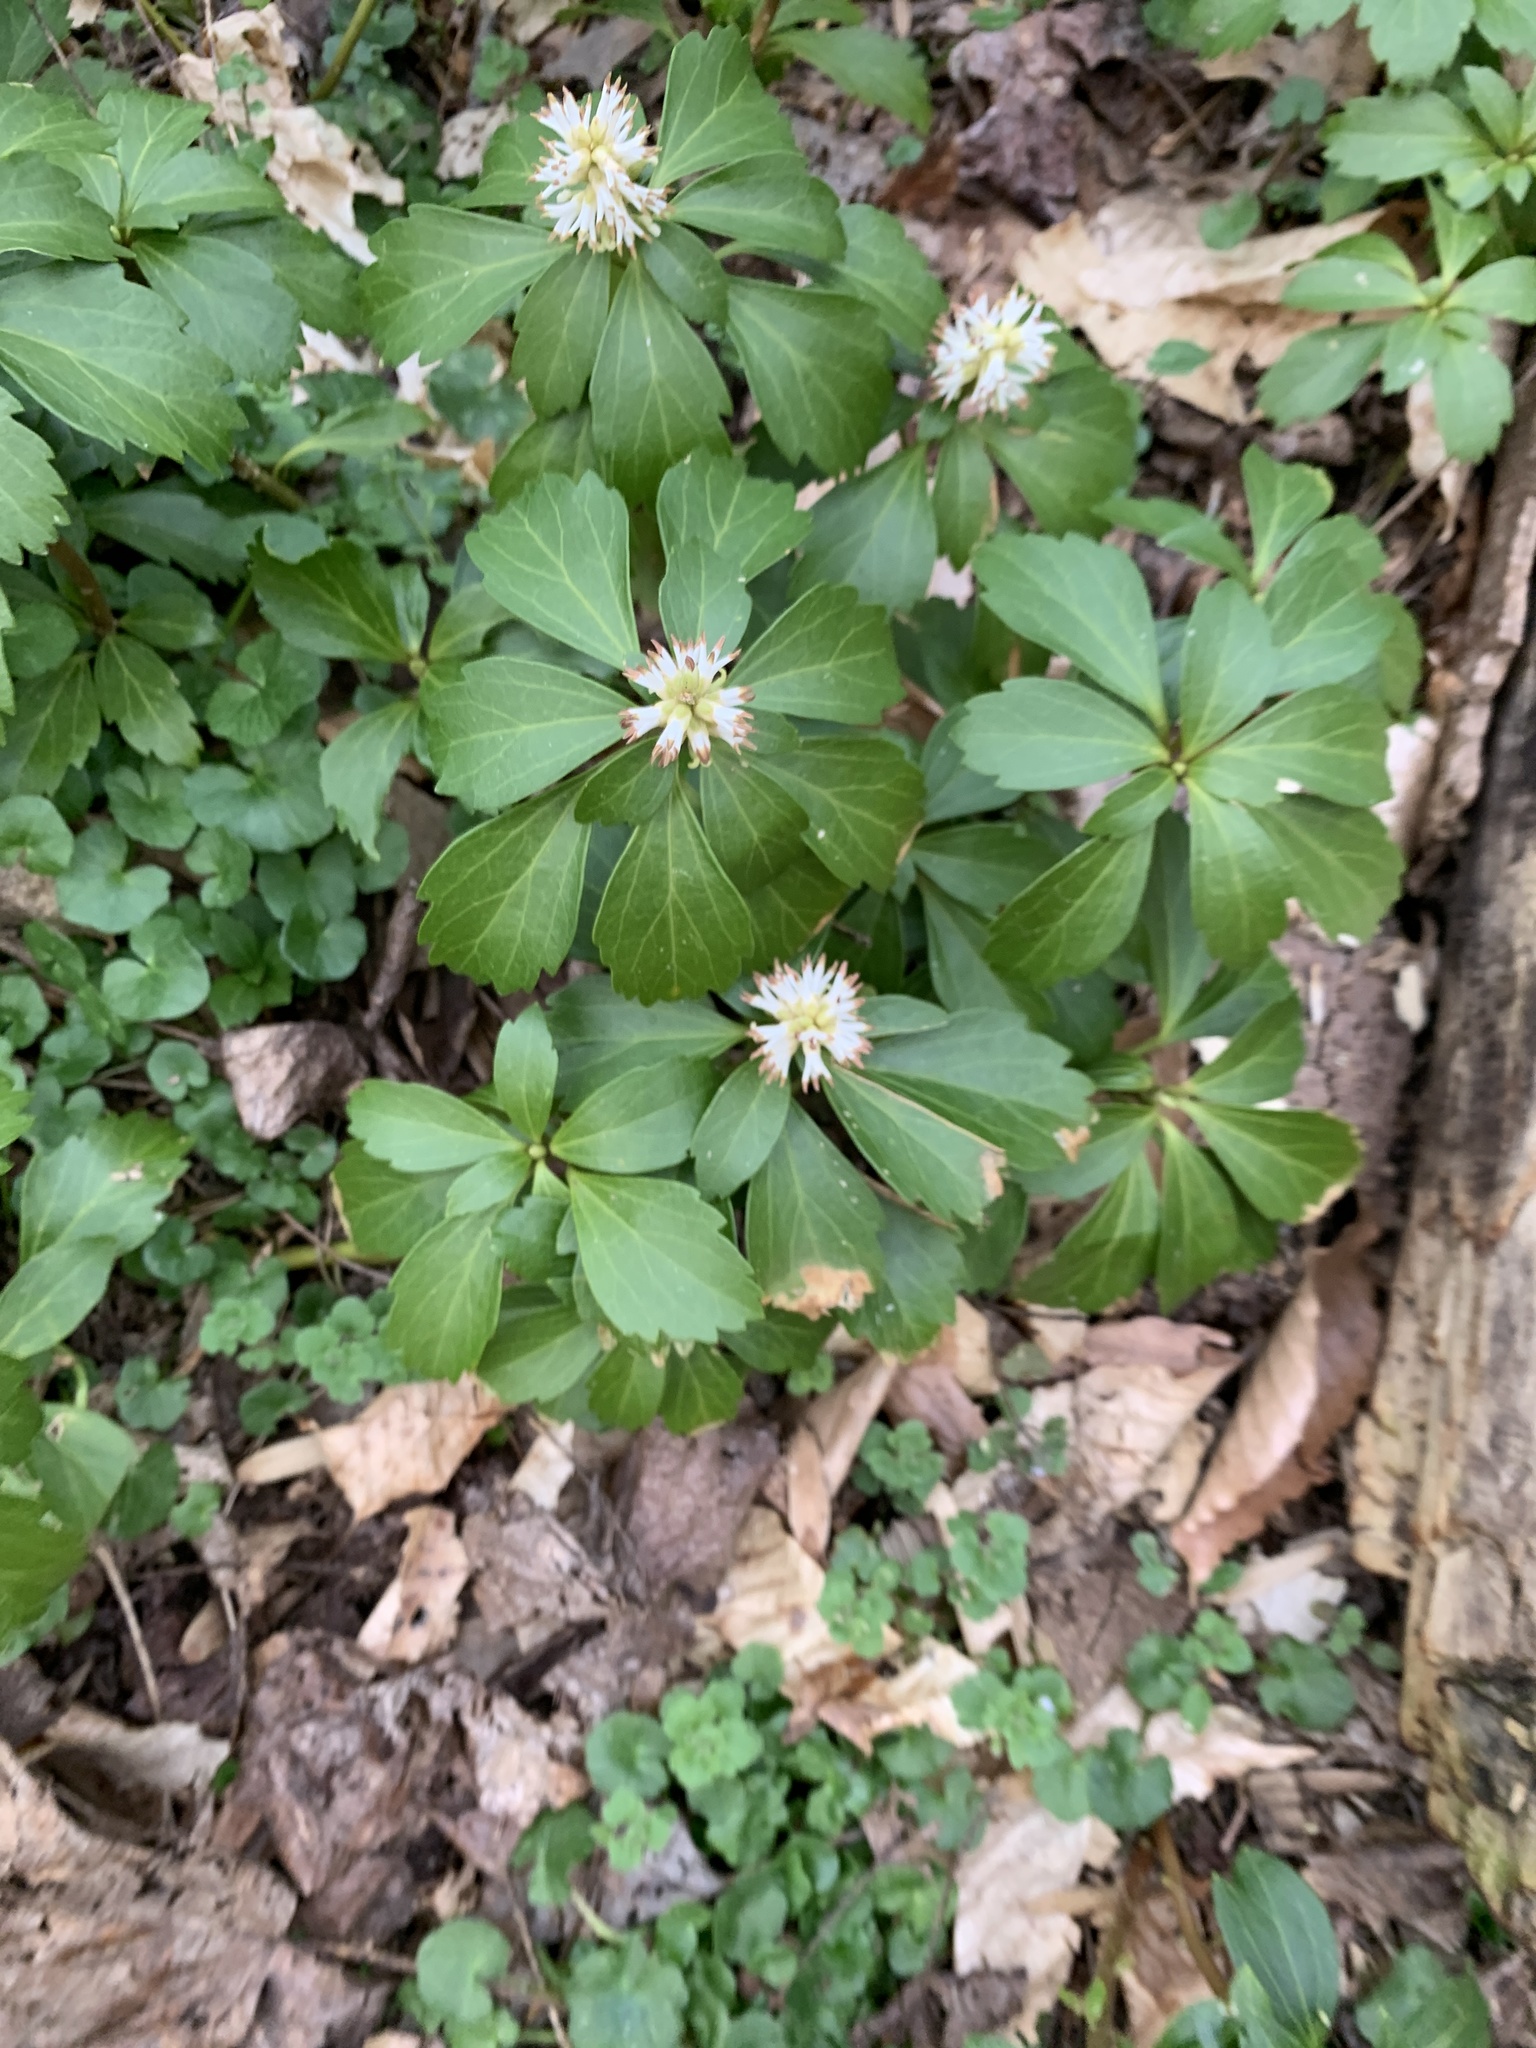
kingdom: Plantae
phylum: Tracheophyta
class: Magnoliopsida
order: Buxales
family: Buxaceae
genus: Pachysandra
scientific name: Pachysandra terminalis
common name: Japanese pachysandra
